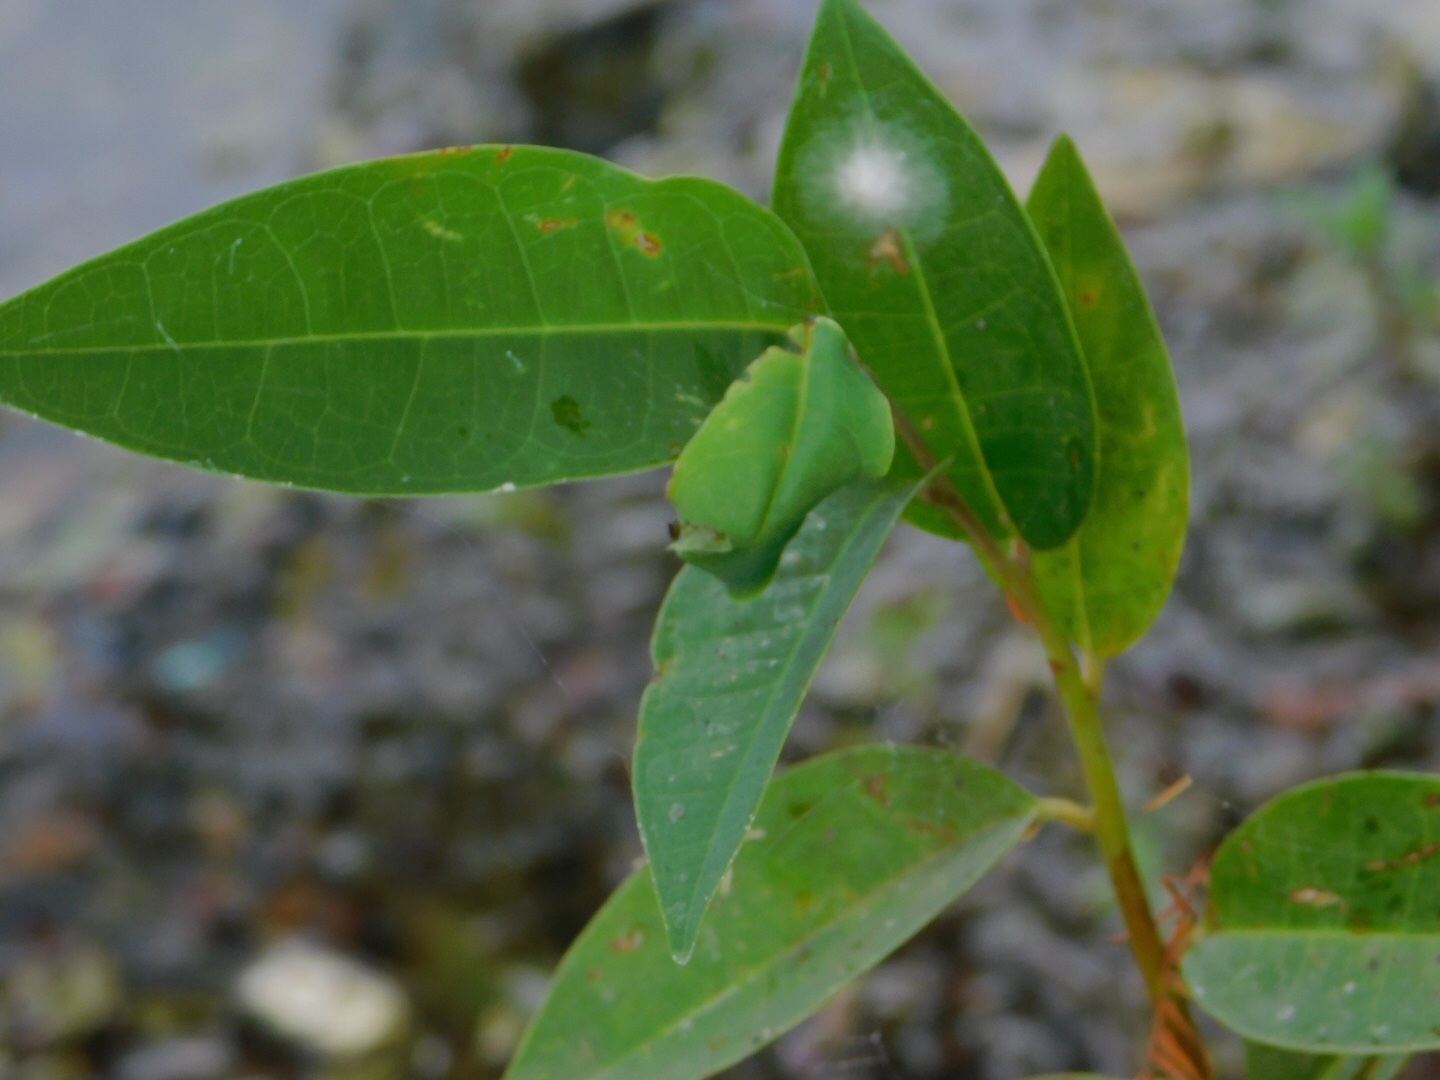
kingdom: Plantae
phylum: Tracheophyta
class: Magnoliopsida
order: Magnoliales
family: Annonaceae
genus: Annona
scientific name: Annona glabra
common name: Monkey apple
